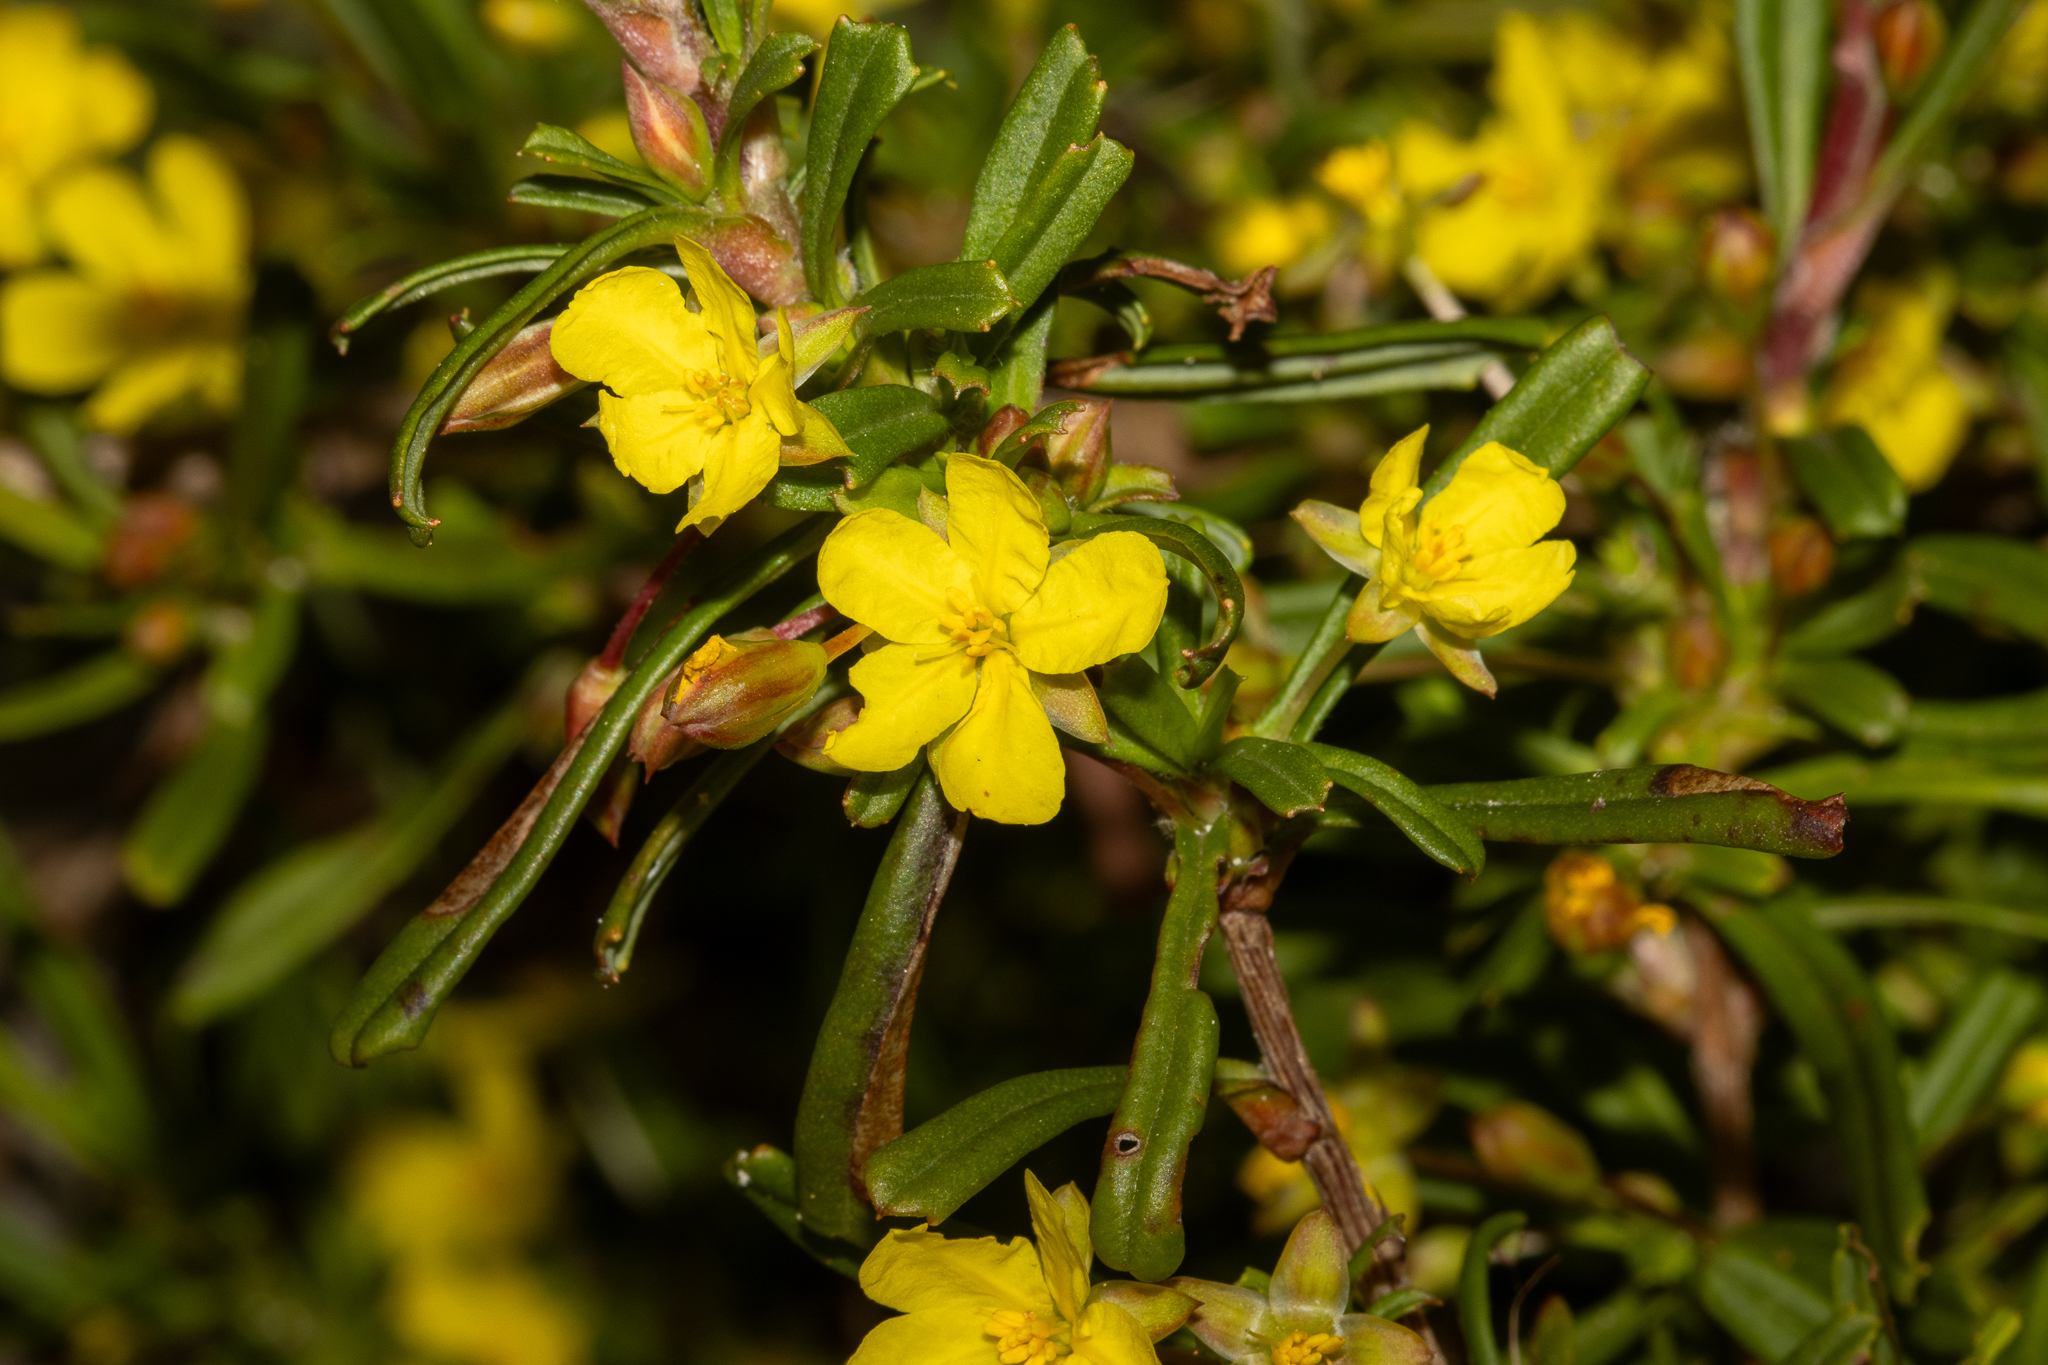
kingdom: Plantae
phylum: Tracheophyta
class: Magnoliopsida
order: Dilleniales
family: Dilleniaceae
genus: Hibbertia
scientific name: Hibbertia racemosa
